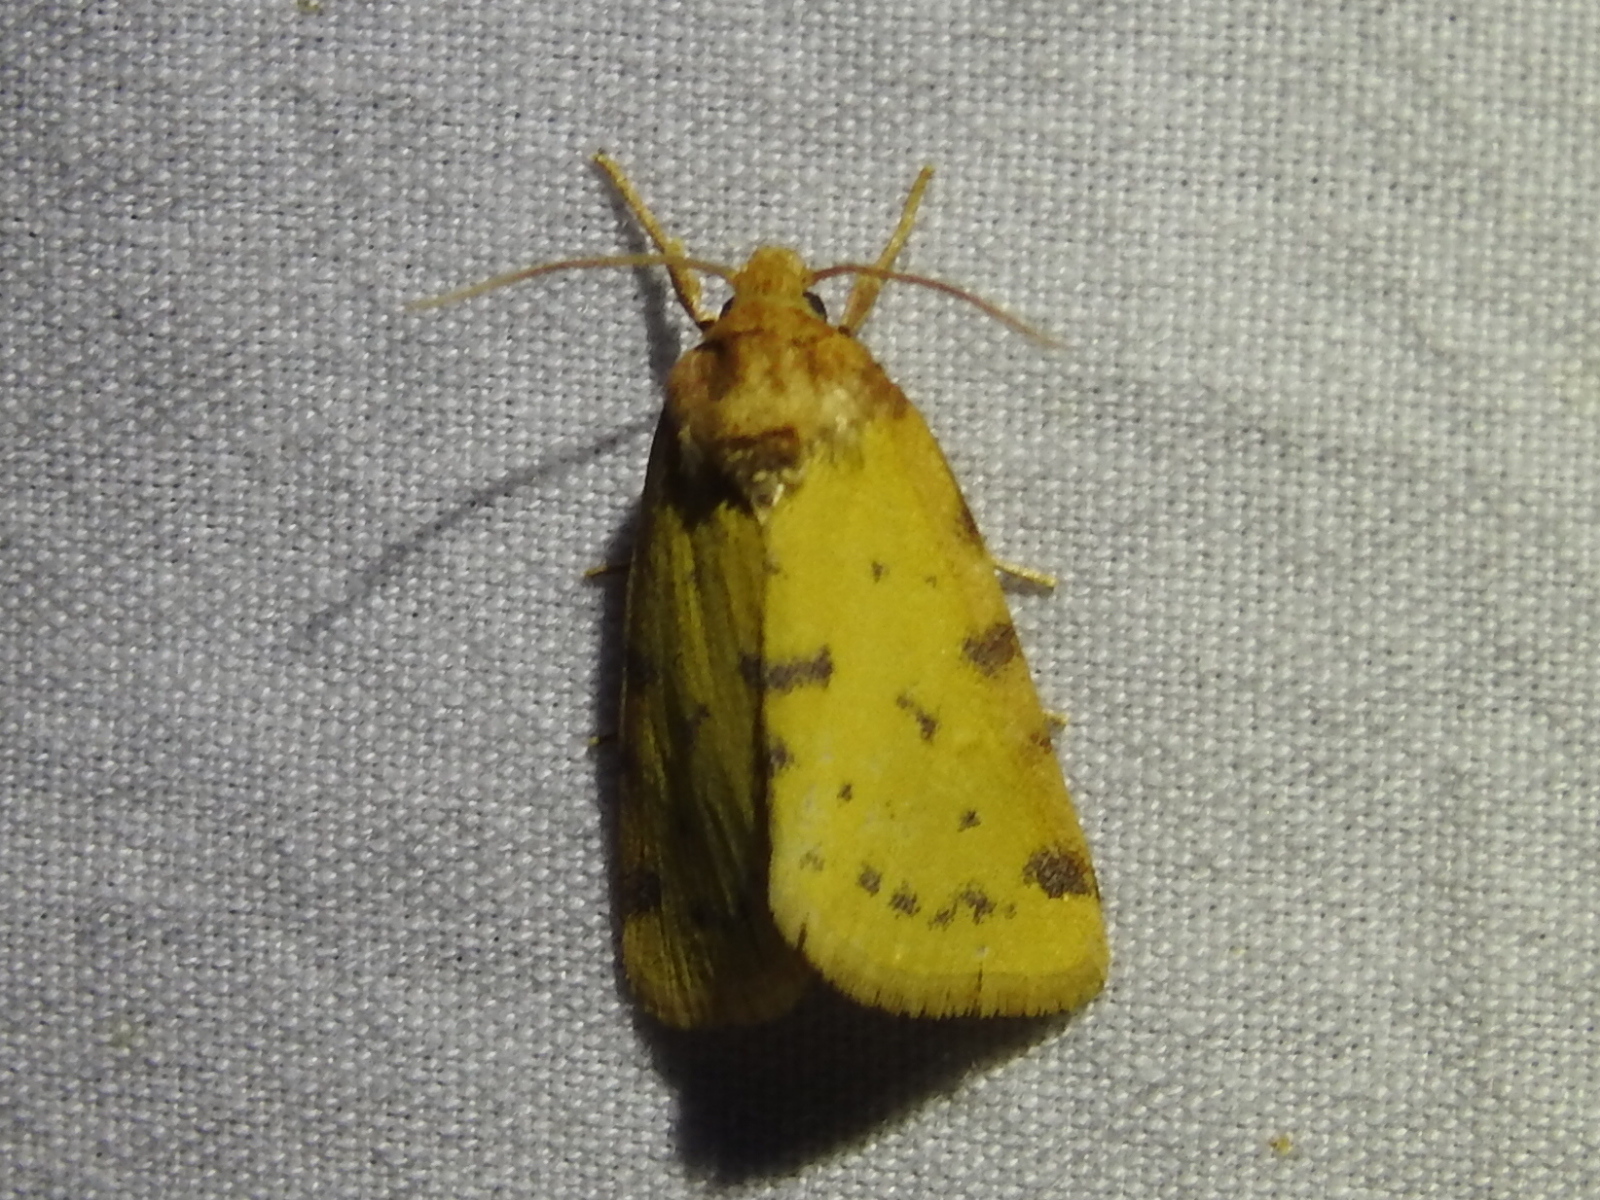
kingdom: Animalia
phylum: Arthropoda
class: Insecta
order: Lepidoptera
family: Noctuidae
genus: Azenia
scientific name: Azenia obtusa
